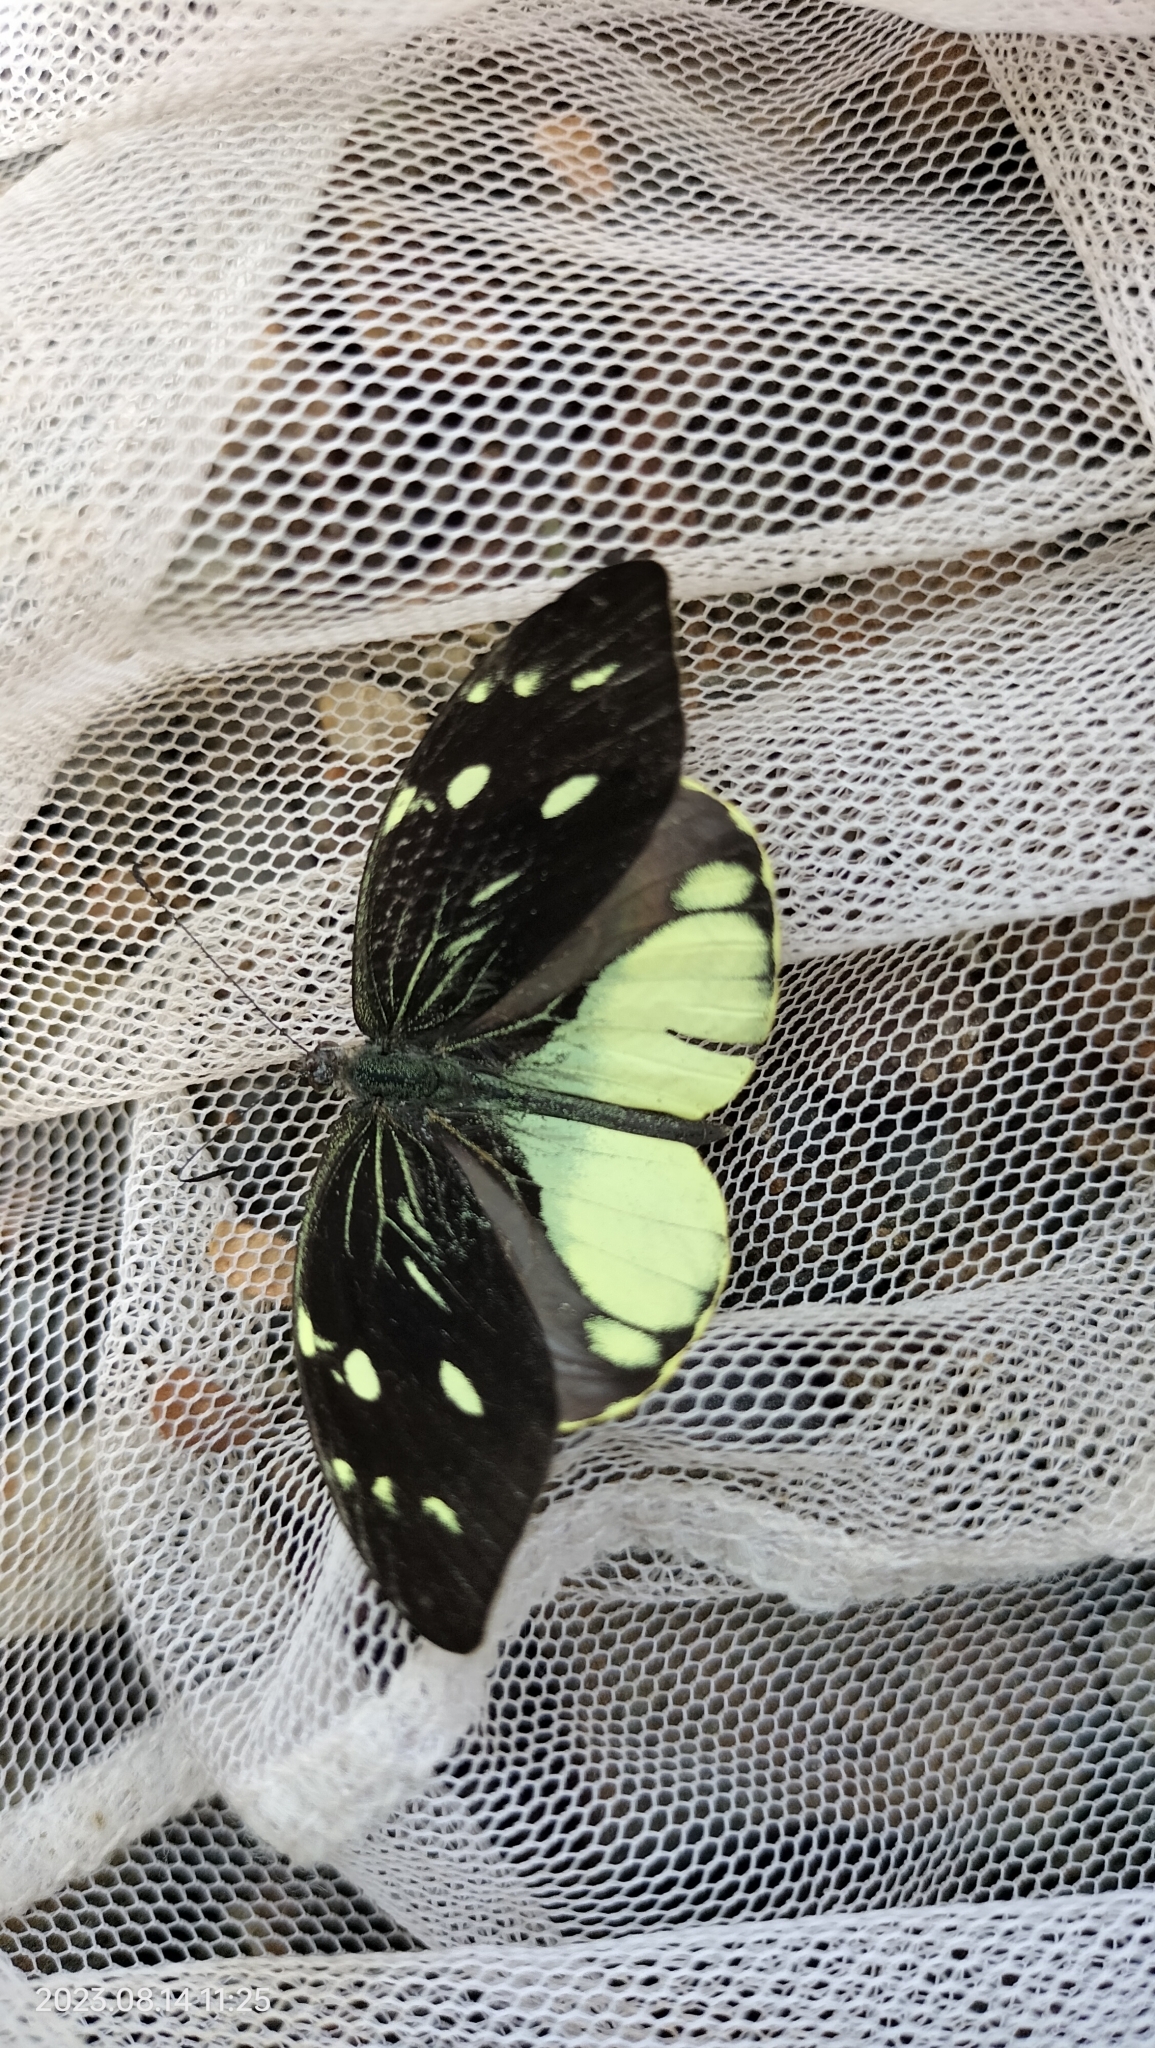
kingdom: Animalia
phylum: Arthropoda
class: Insecta
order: Lepidoptera
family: Pieridae
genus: Lieinix
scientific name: Lieinix nemesis
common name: Frosted mimic-white
